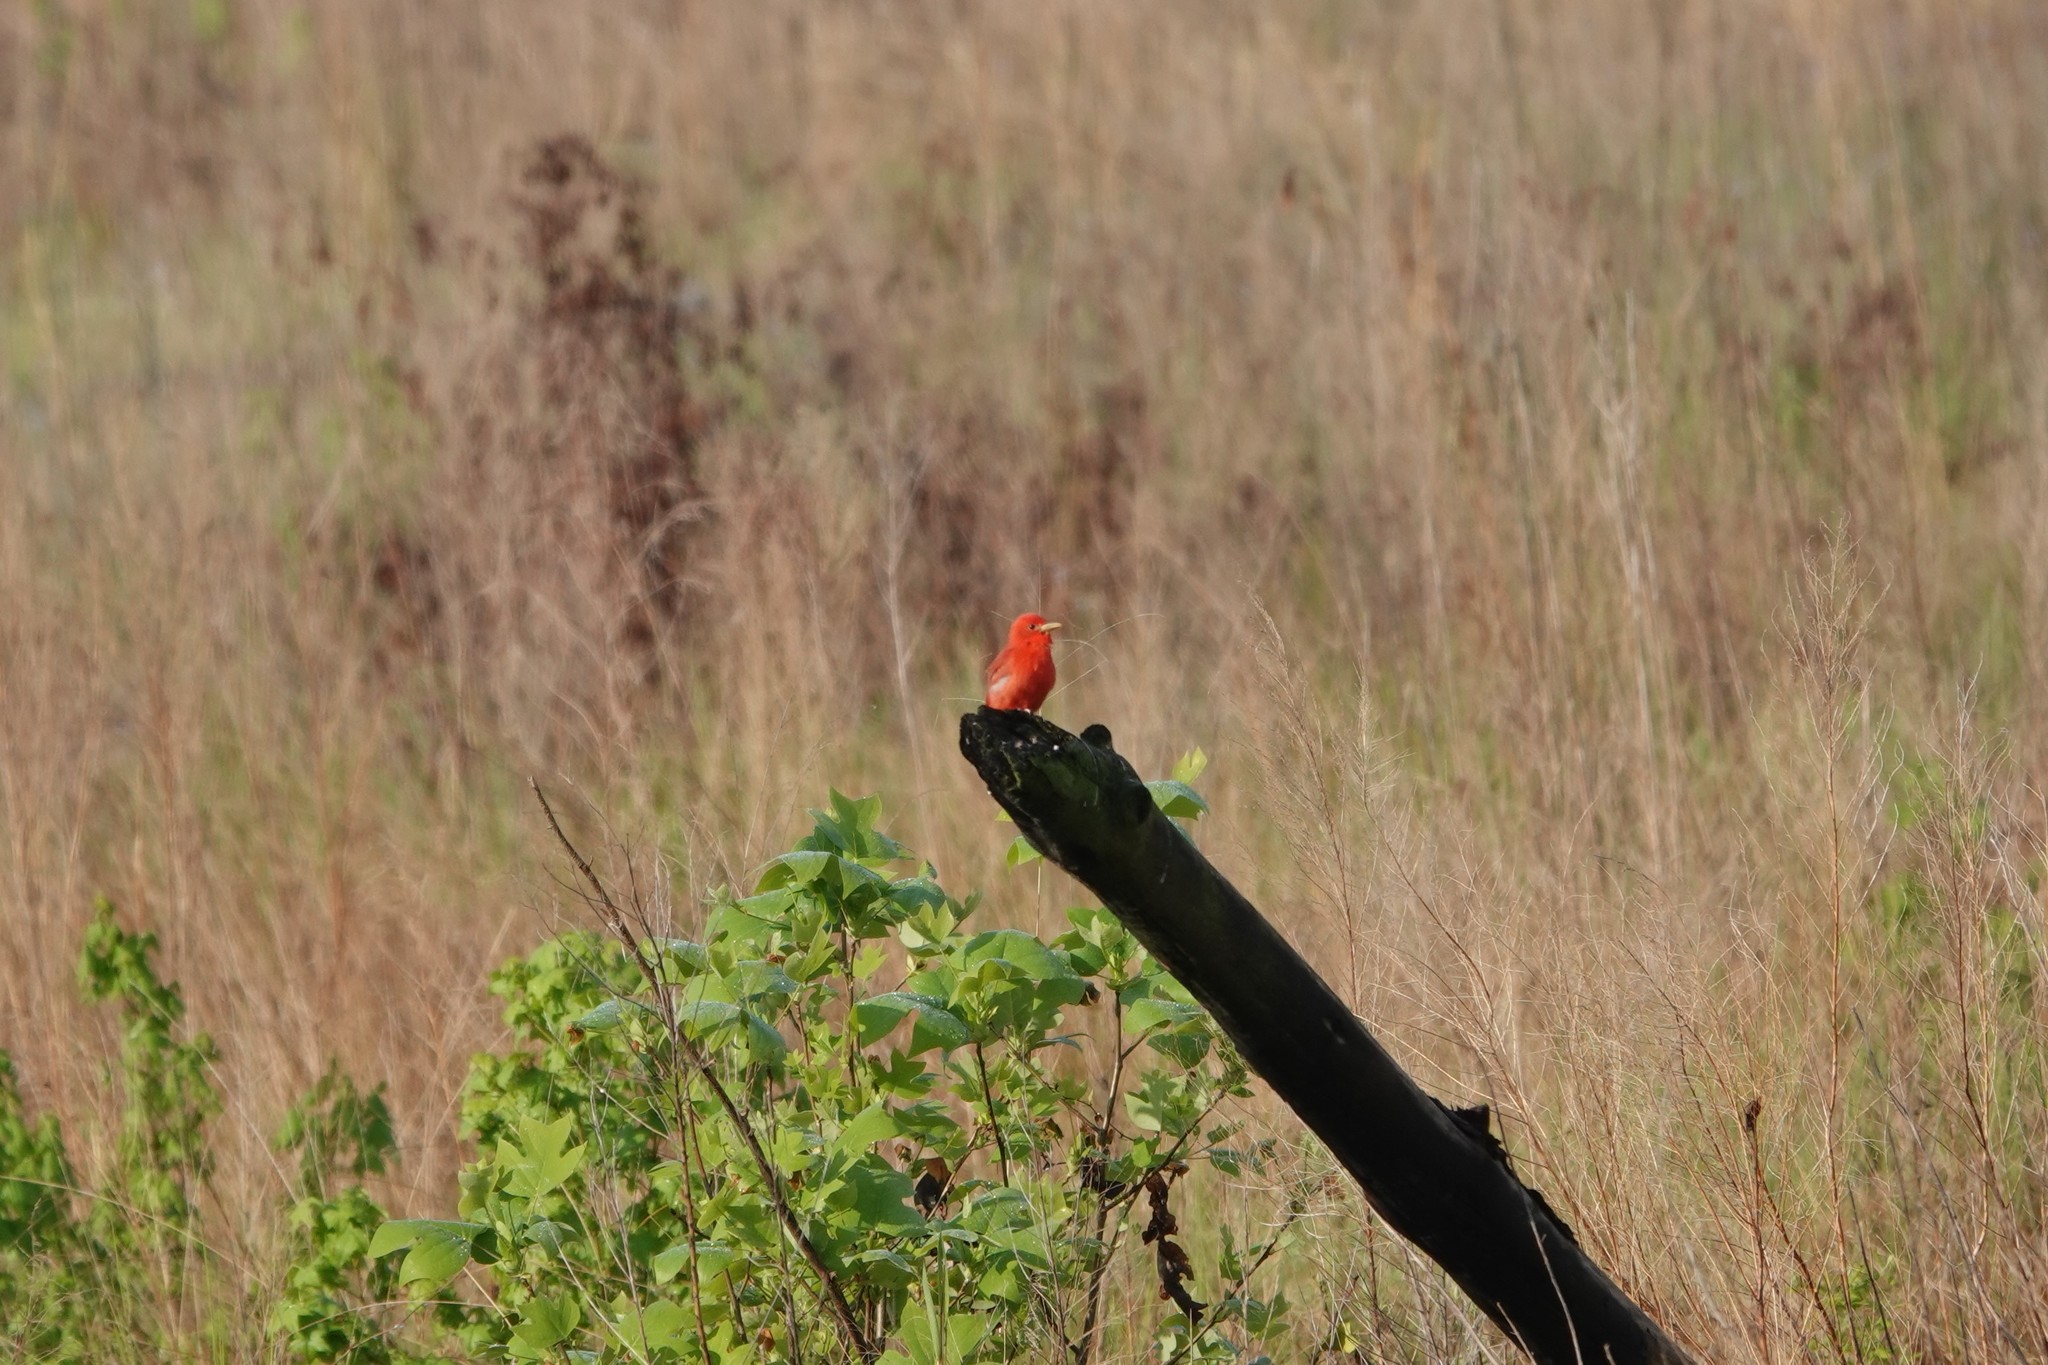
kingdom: Animalia
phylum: Chordata
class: Aves
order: Passeriformes
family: Cardinalidae
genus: Piranga
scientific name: Piranga rubra
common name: Summer tanager
